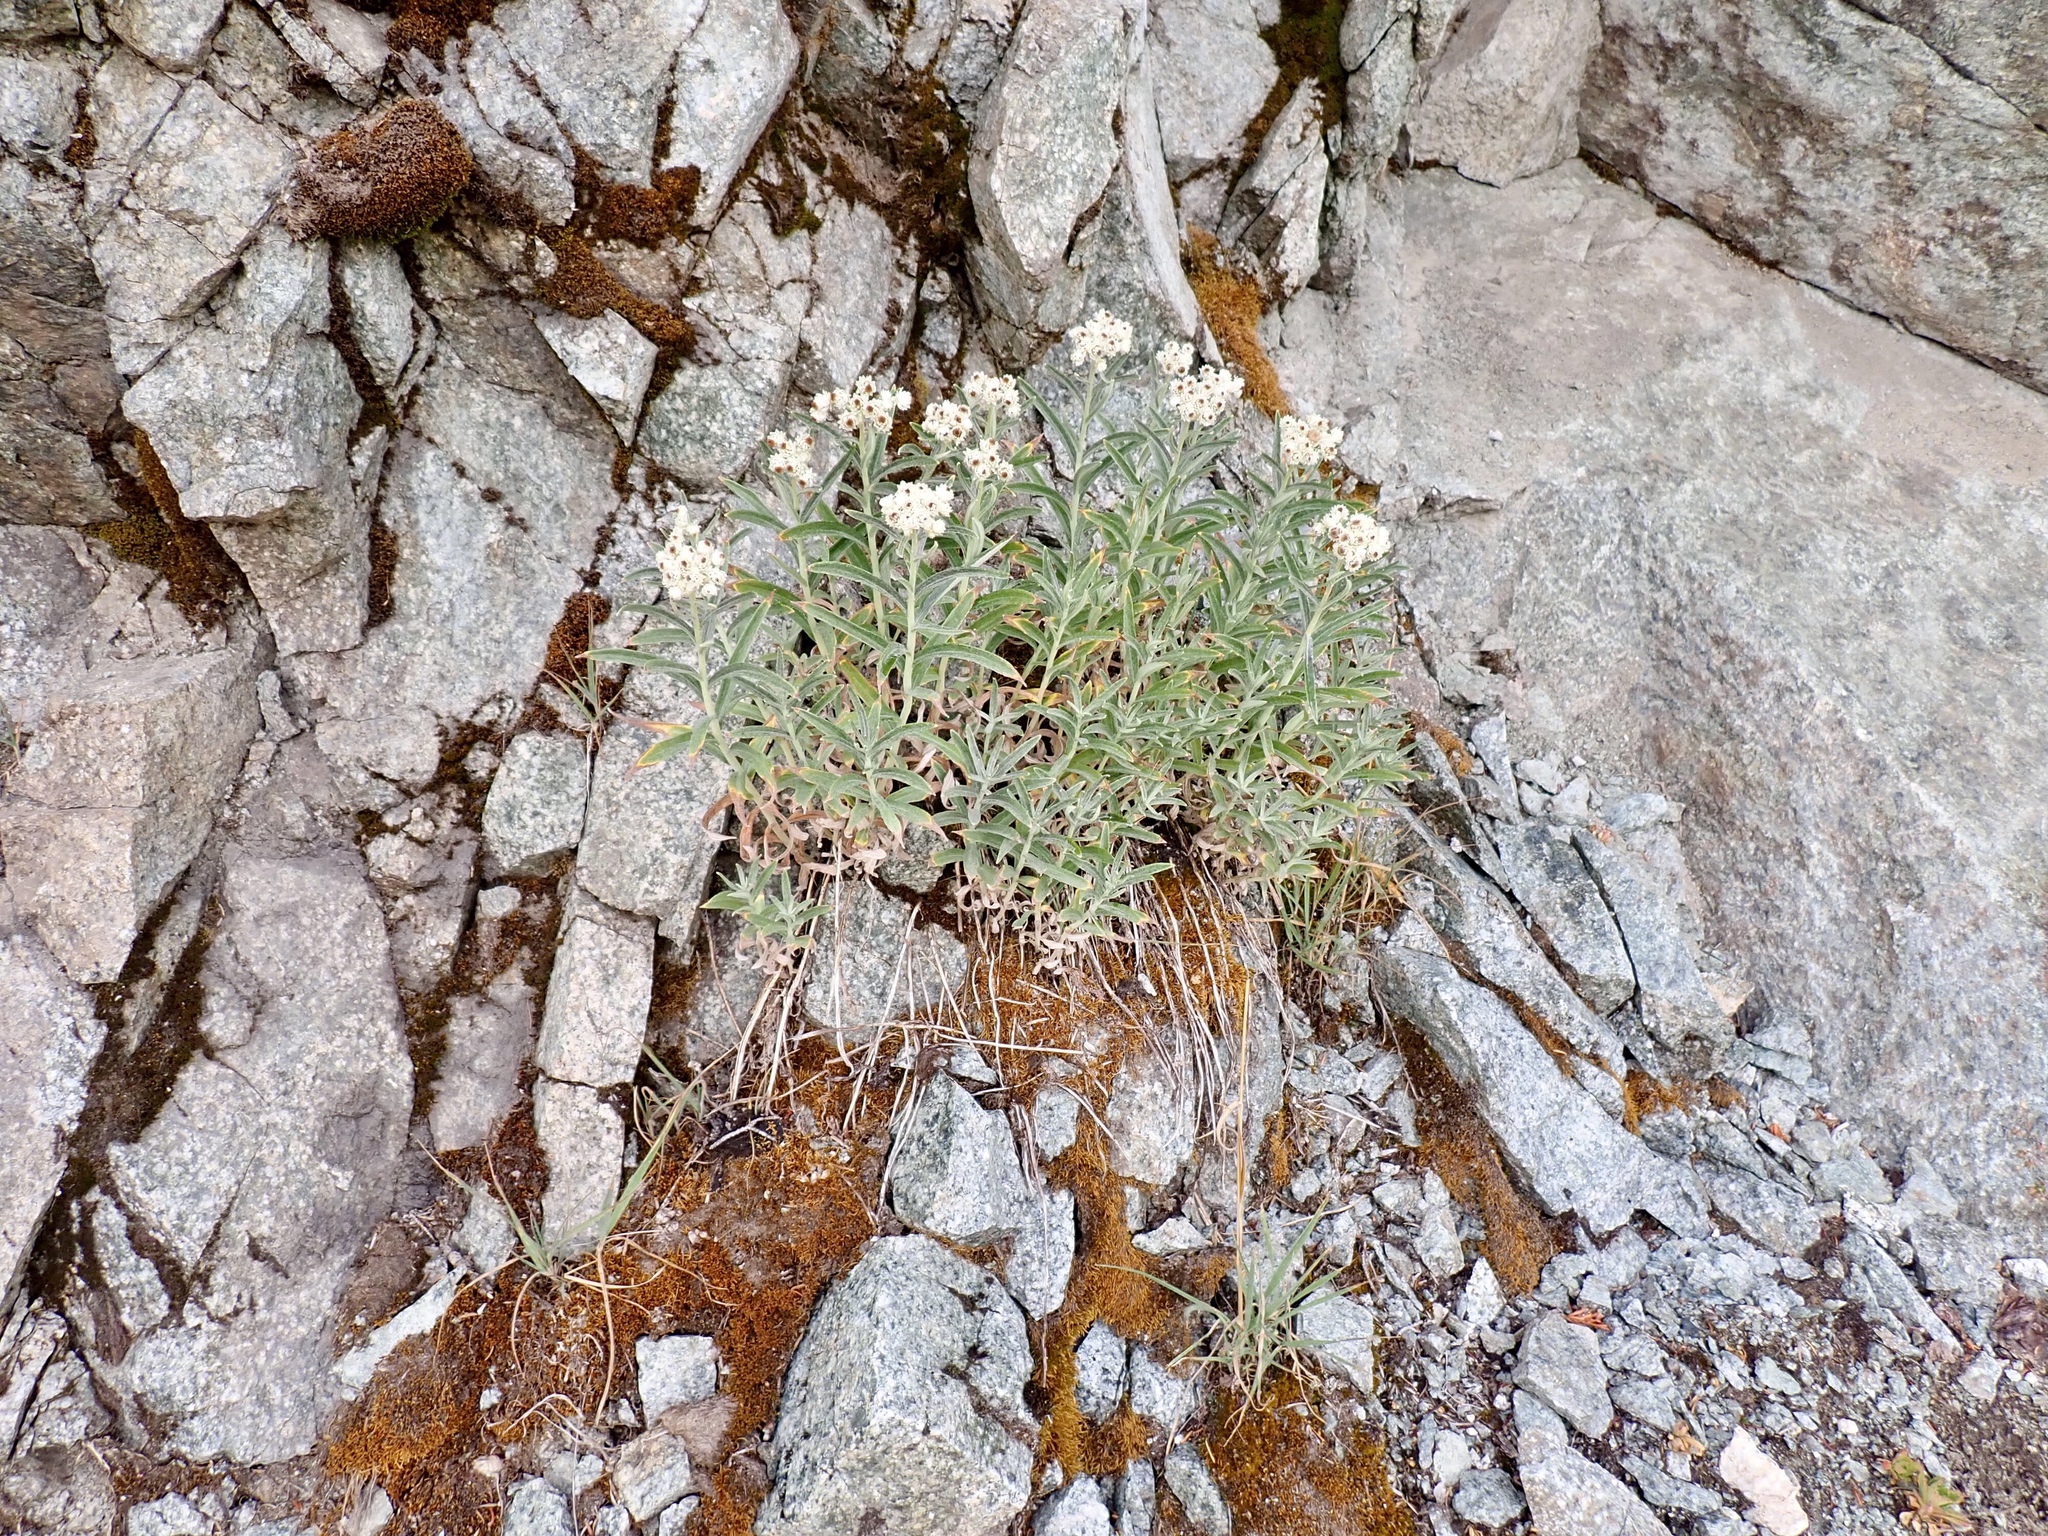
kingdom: Plantae
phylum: Tracheophyta
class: Magnoliopsida
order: Asterales
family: Asteraceae
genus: Anaphalis
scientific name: Anaphalis margaritacea
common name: Pearly everlasting
